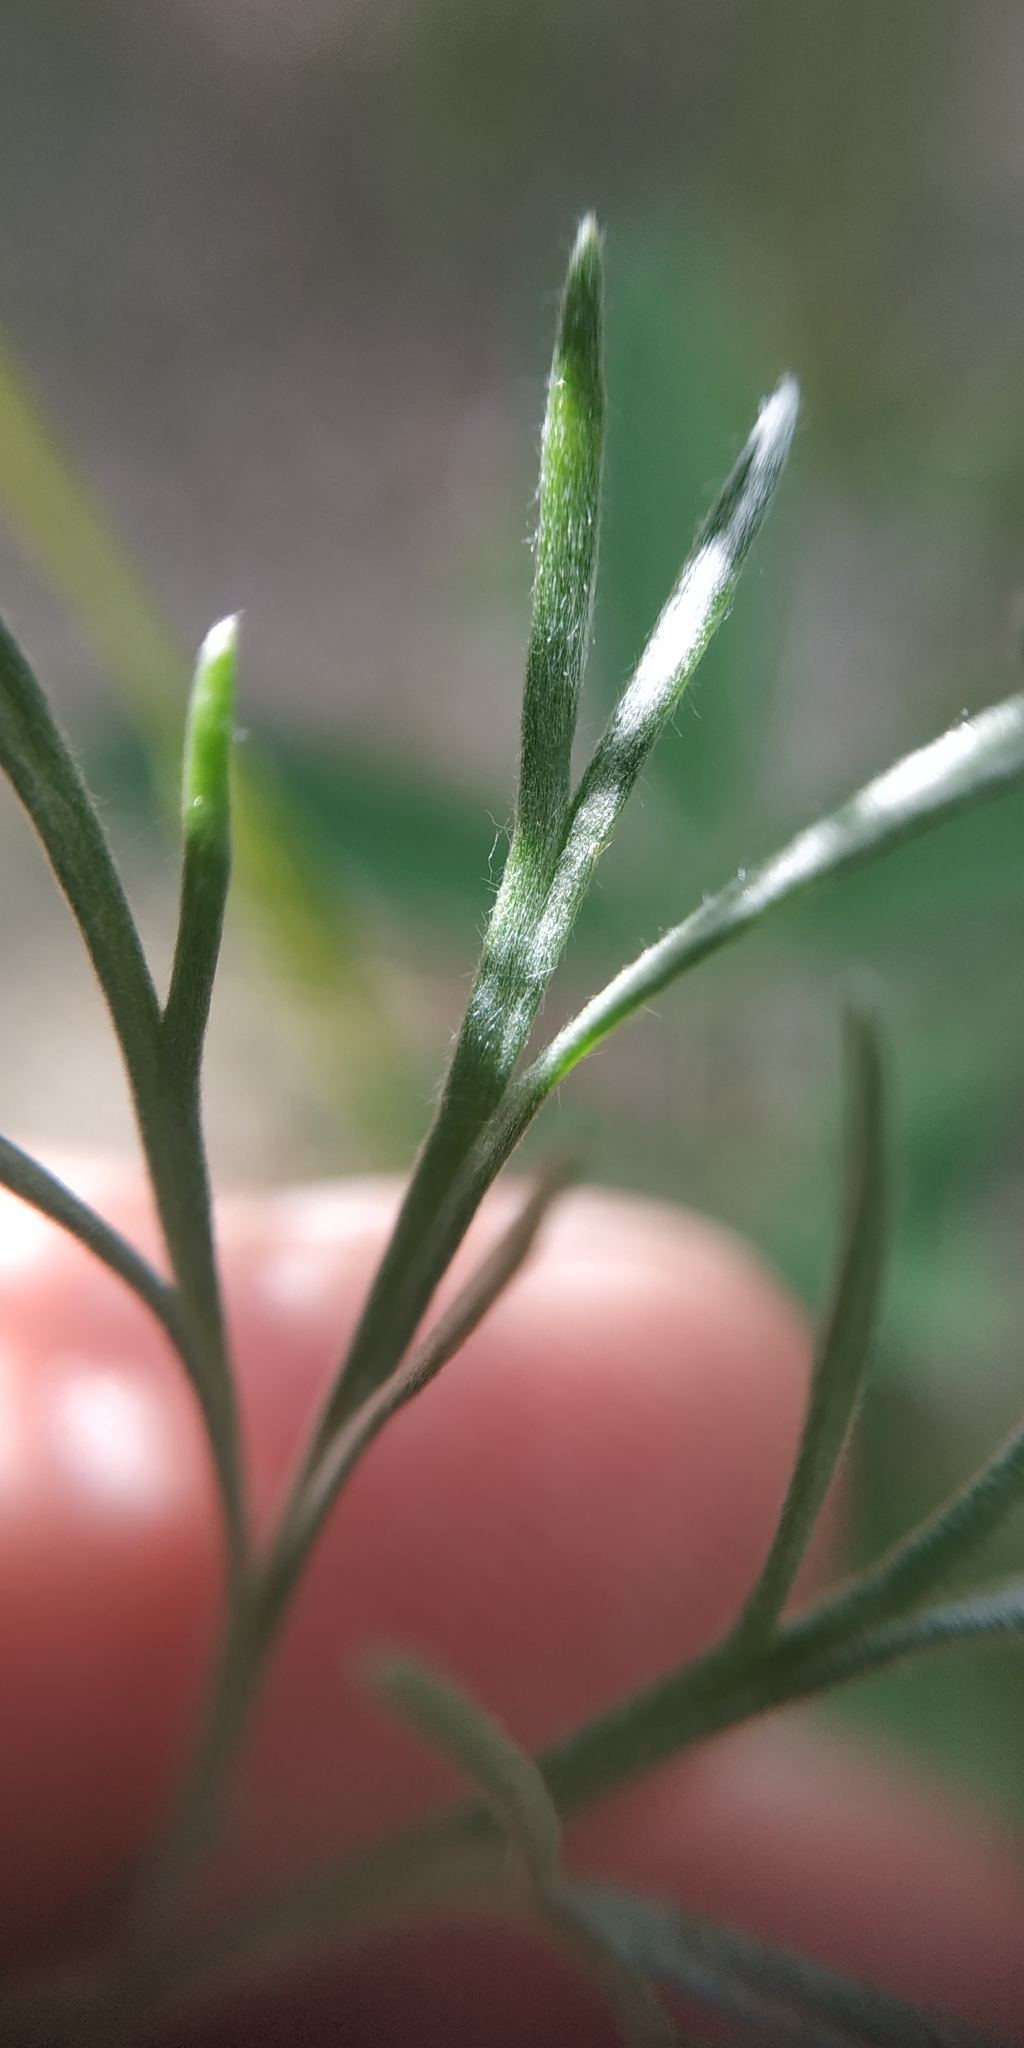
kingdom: Plantae
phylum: Tracheophyta
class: Magnoliopsida
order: Asterales
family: Asteraceae
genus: Artemisia
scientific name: Artemisia sericea
